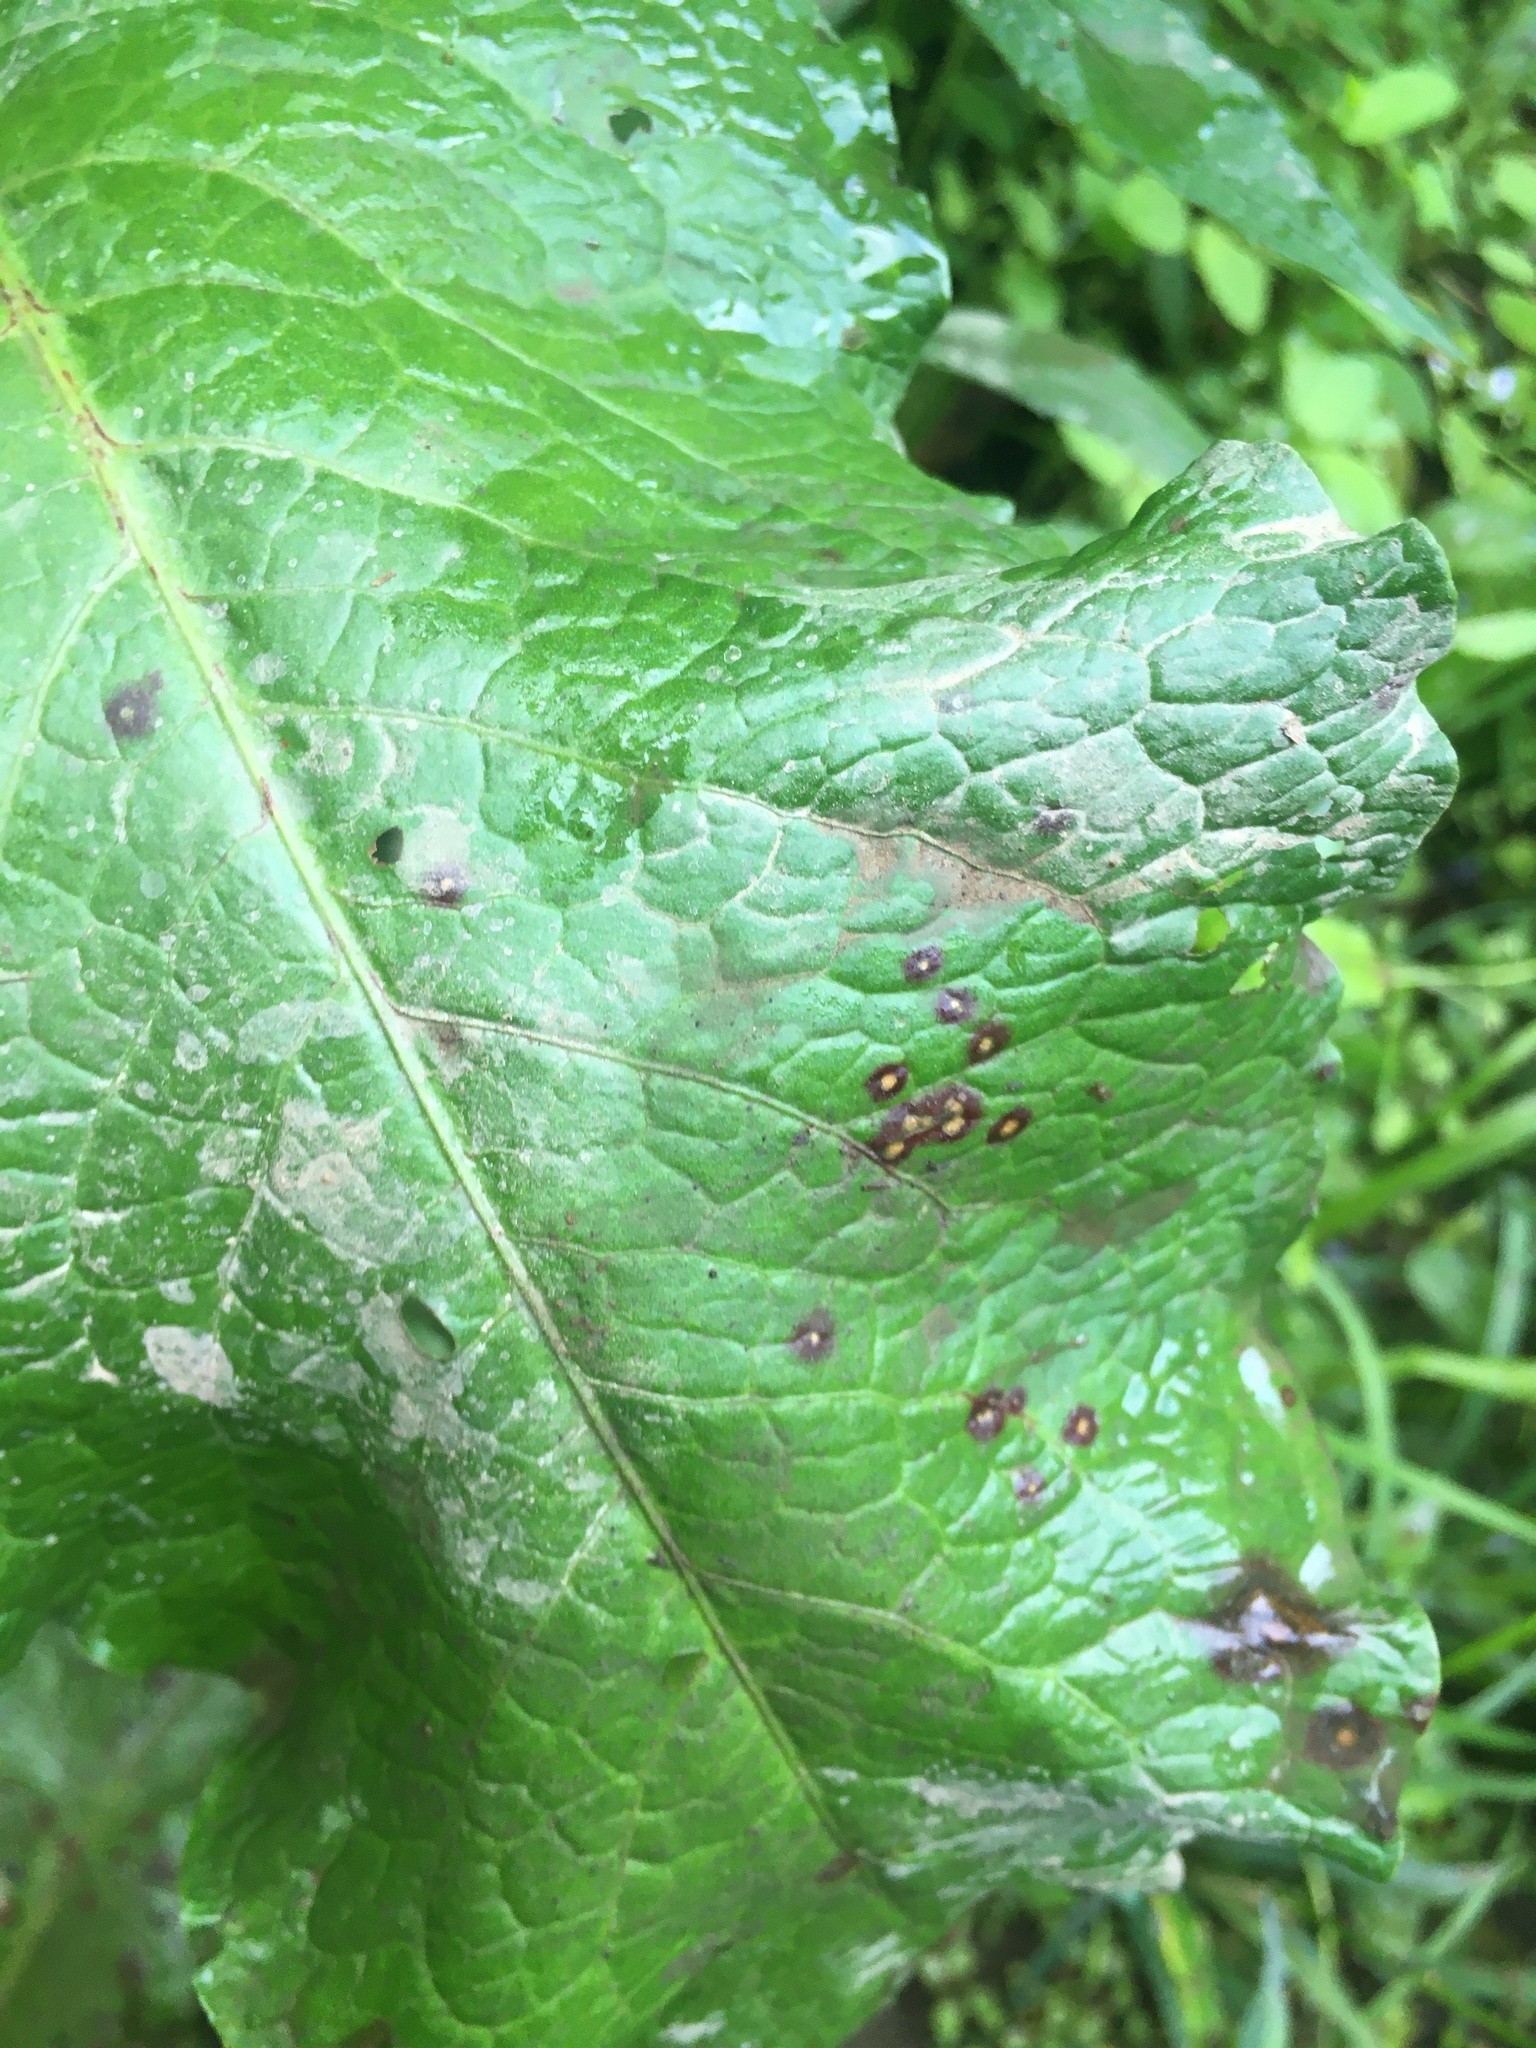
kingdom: Fungi
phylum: Ascomycota
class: Dothideomycetes
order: Mycosphaerellales
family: Mycosphaerellaceae
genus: Ramularia
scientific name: Ramularia rubella
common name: Red dock spot
